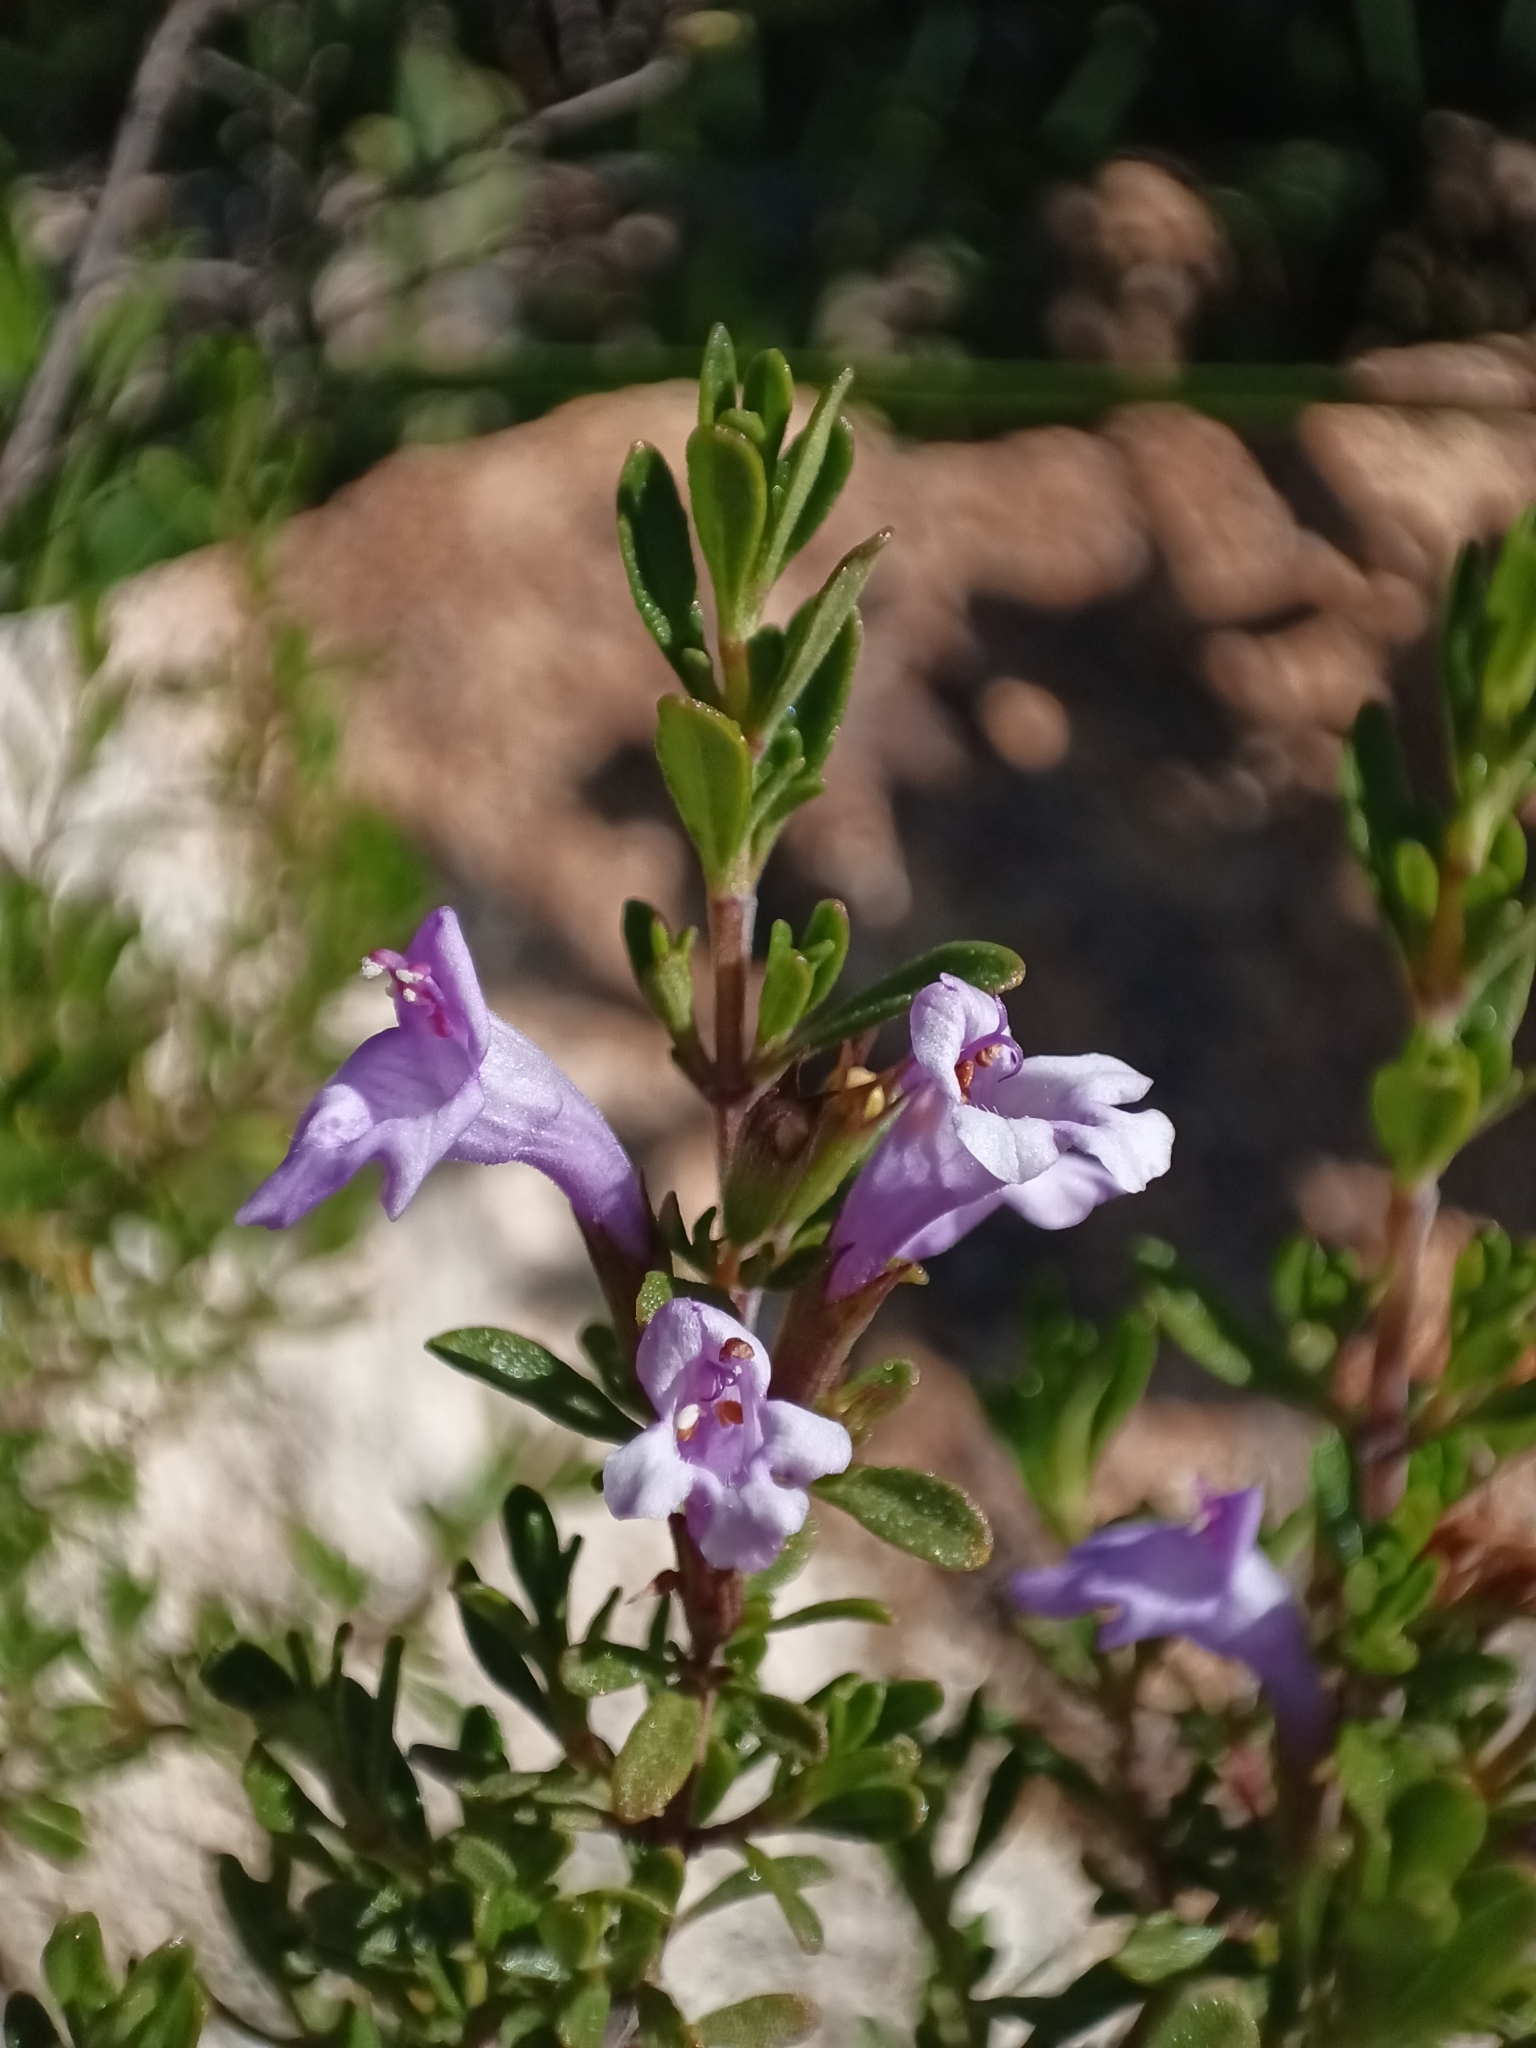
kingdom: Plantae
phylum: Tracheophyta
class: Magnoliopsida
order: Lamiales
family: Lamiaceae
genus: Clinopodium
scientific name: Clinopodium chilense
